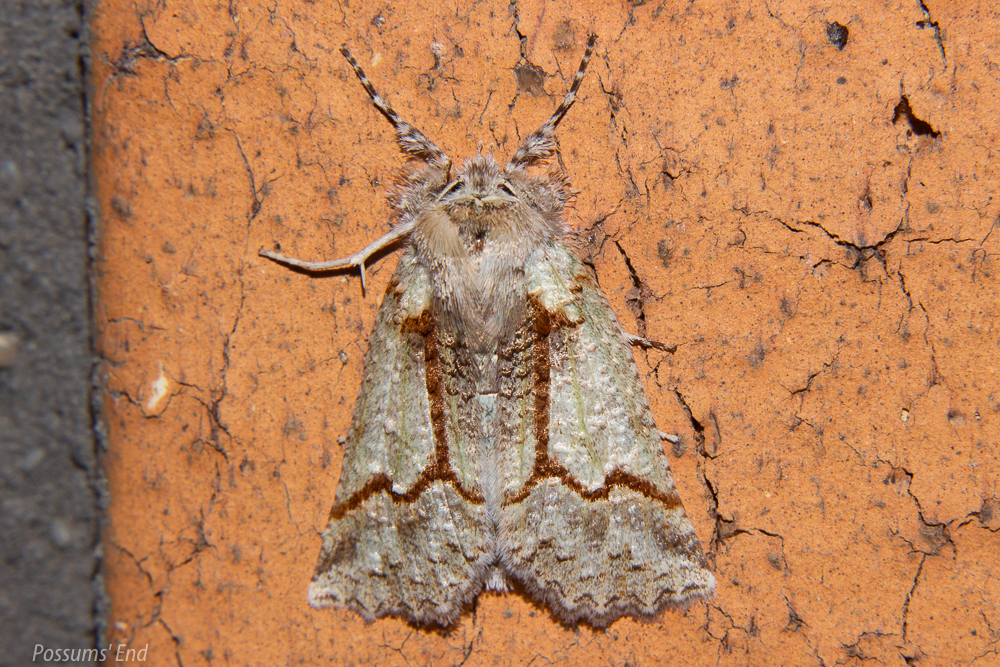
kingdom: Animalia
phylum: Arthropoda
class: Insecta
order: Lepidoptera
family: Geometridae
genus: Declana
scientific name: Declana floccosa
